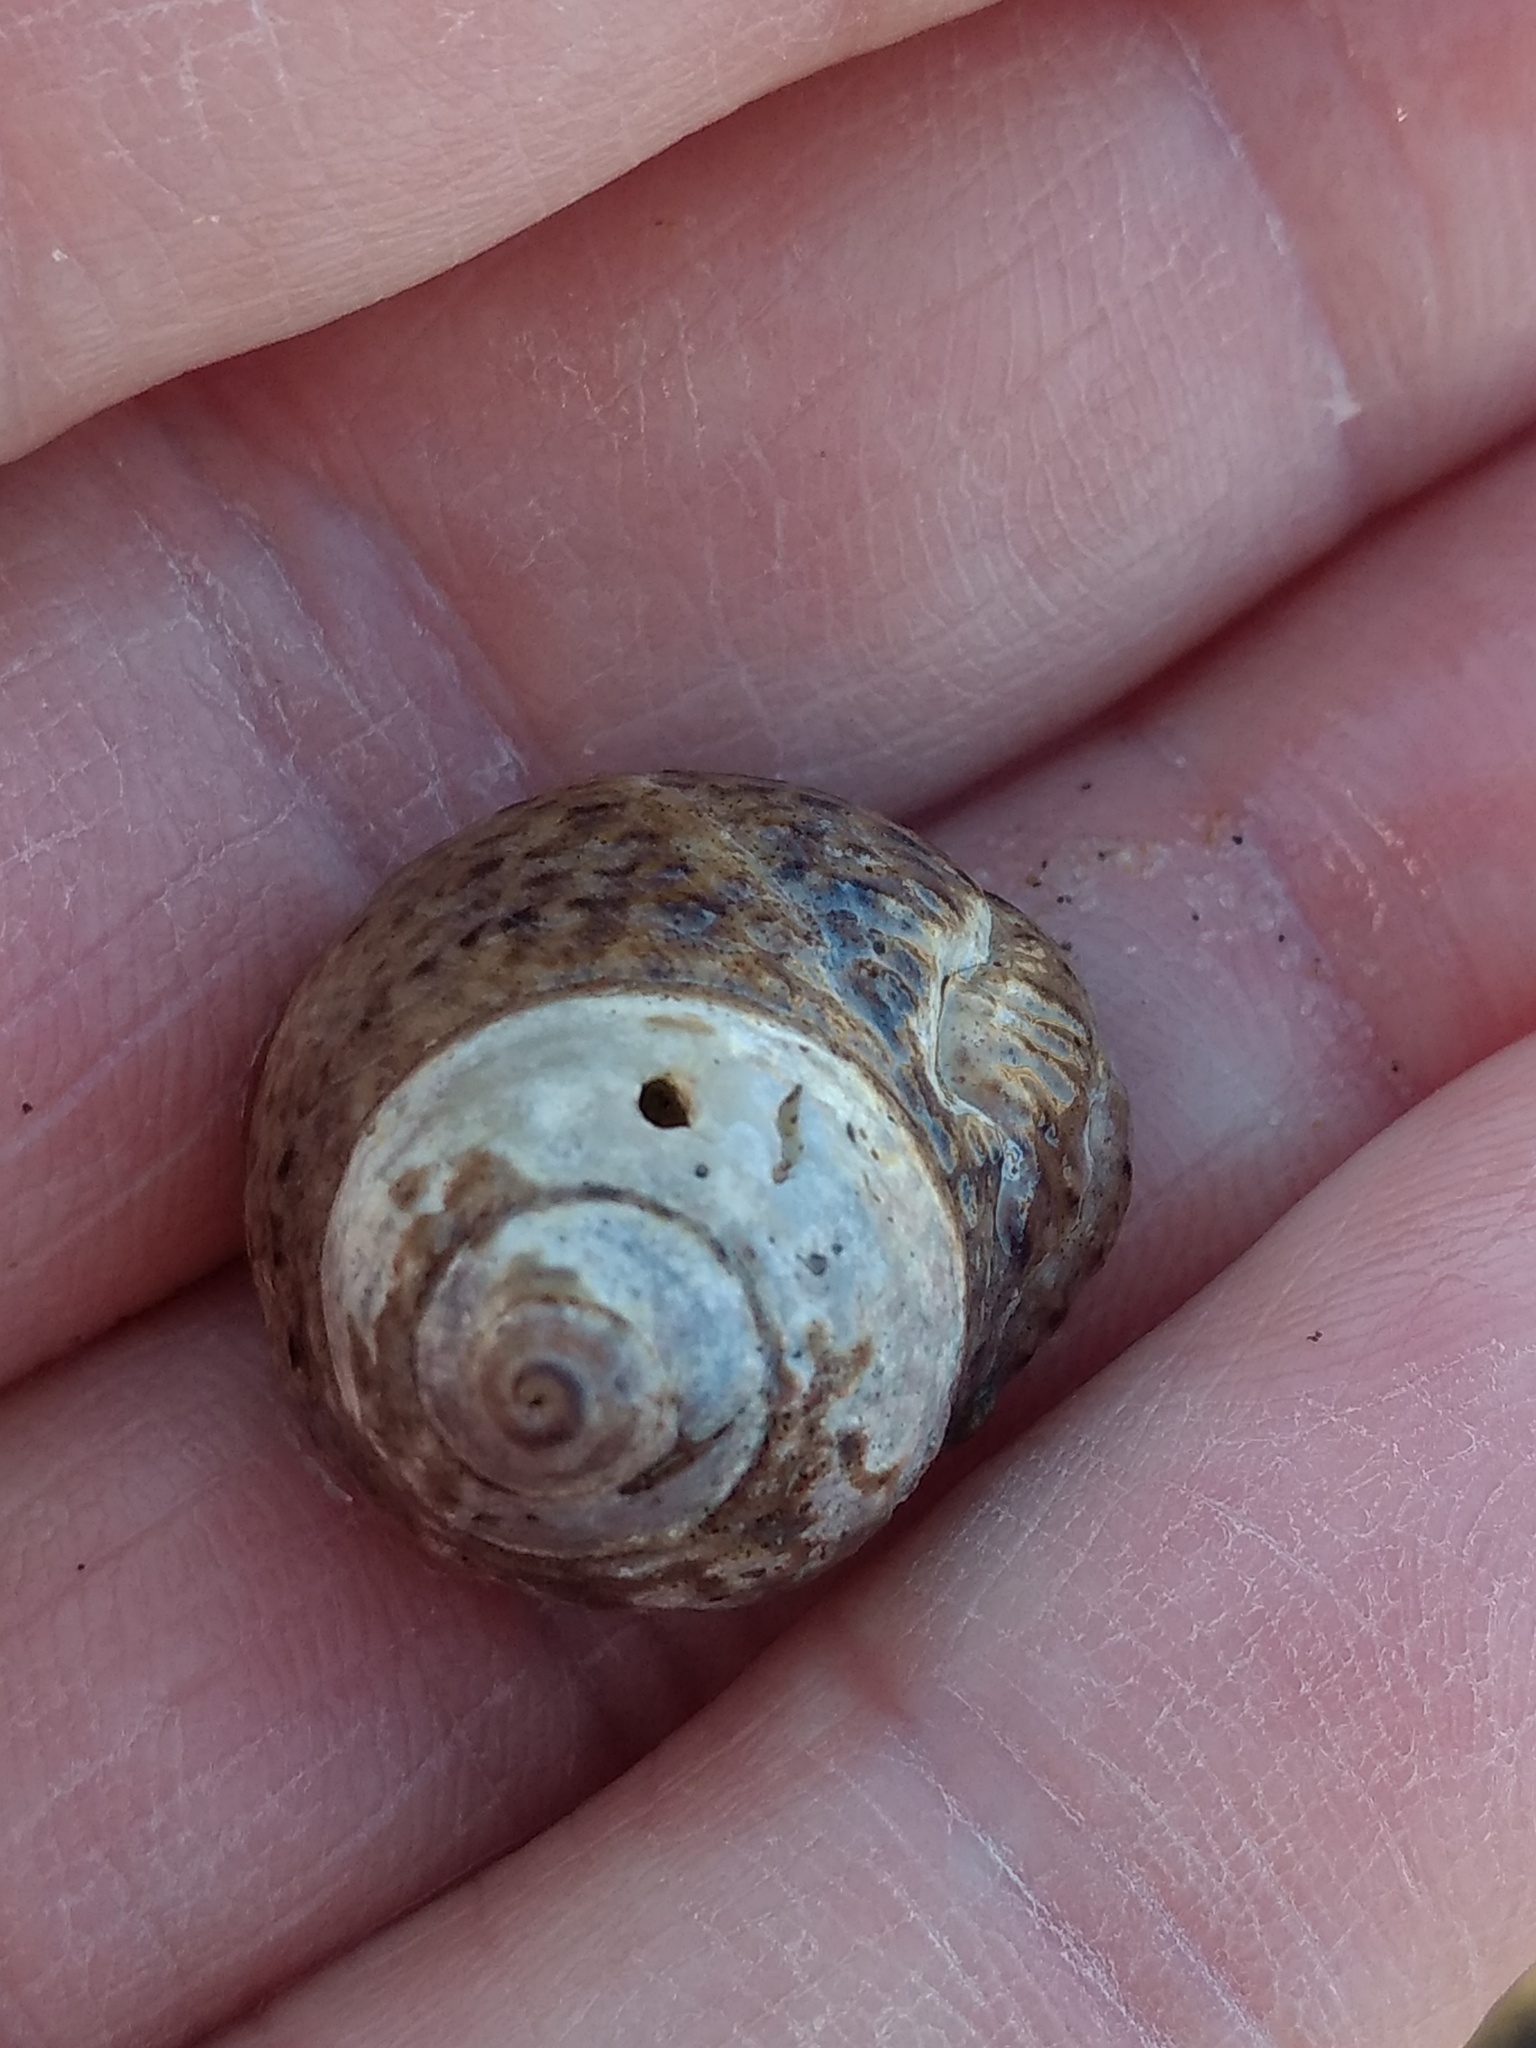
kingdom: Animalia
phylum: Mollusca
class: Gastropoda
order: Trochida
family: Tegulidae
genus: Tegula
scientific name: Tegula eiseni
